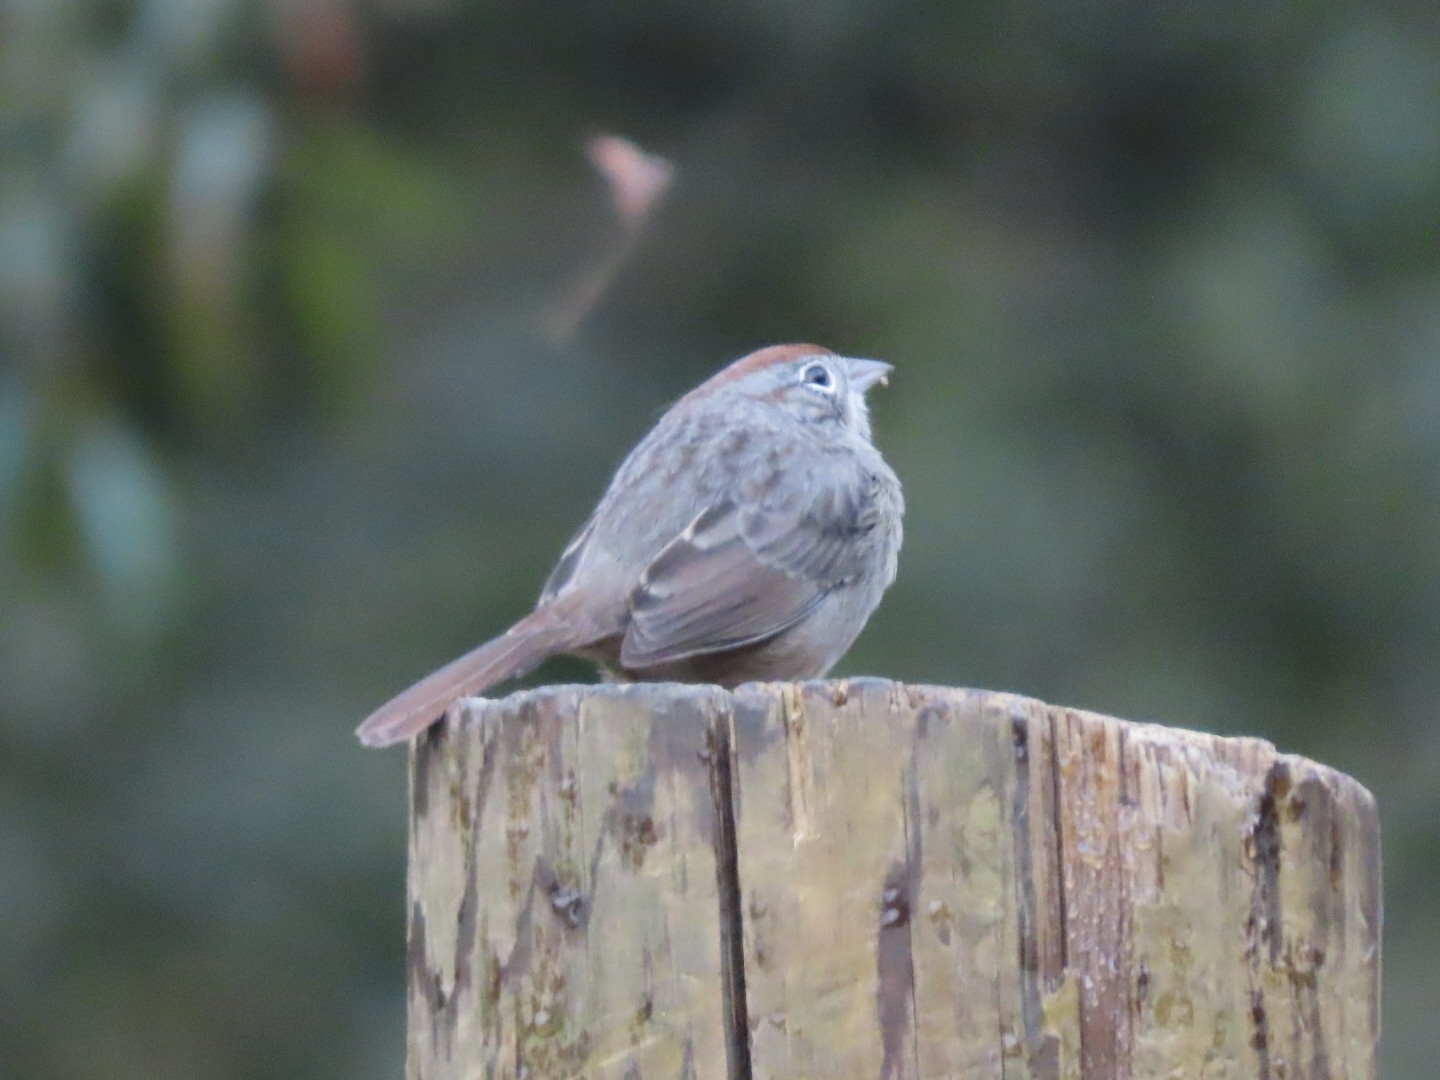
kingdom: Animalia
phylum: Chordata
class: Aves
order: Passeriformes
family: Passerellidae
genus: Aimophila
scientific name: Aimophila ruficeps
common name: Rufous-crowned sparrow
